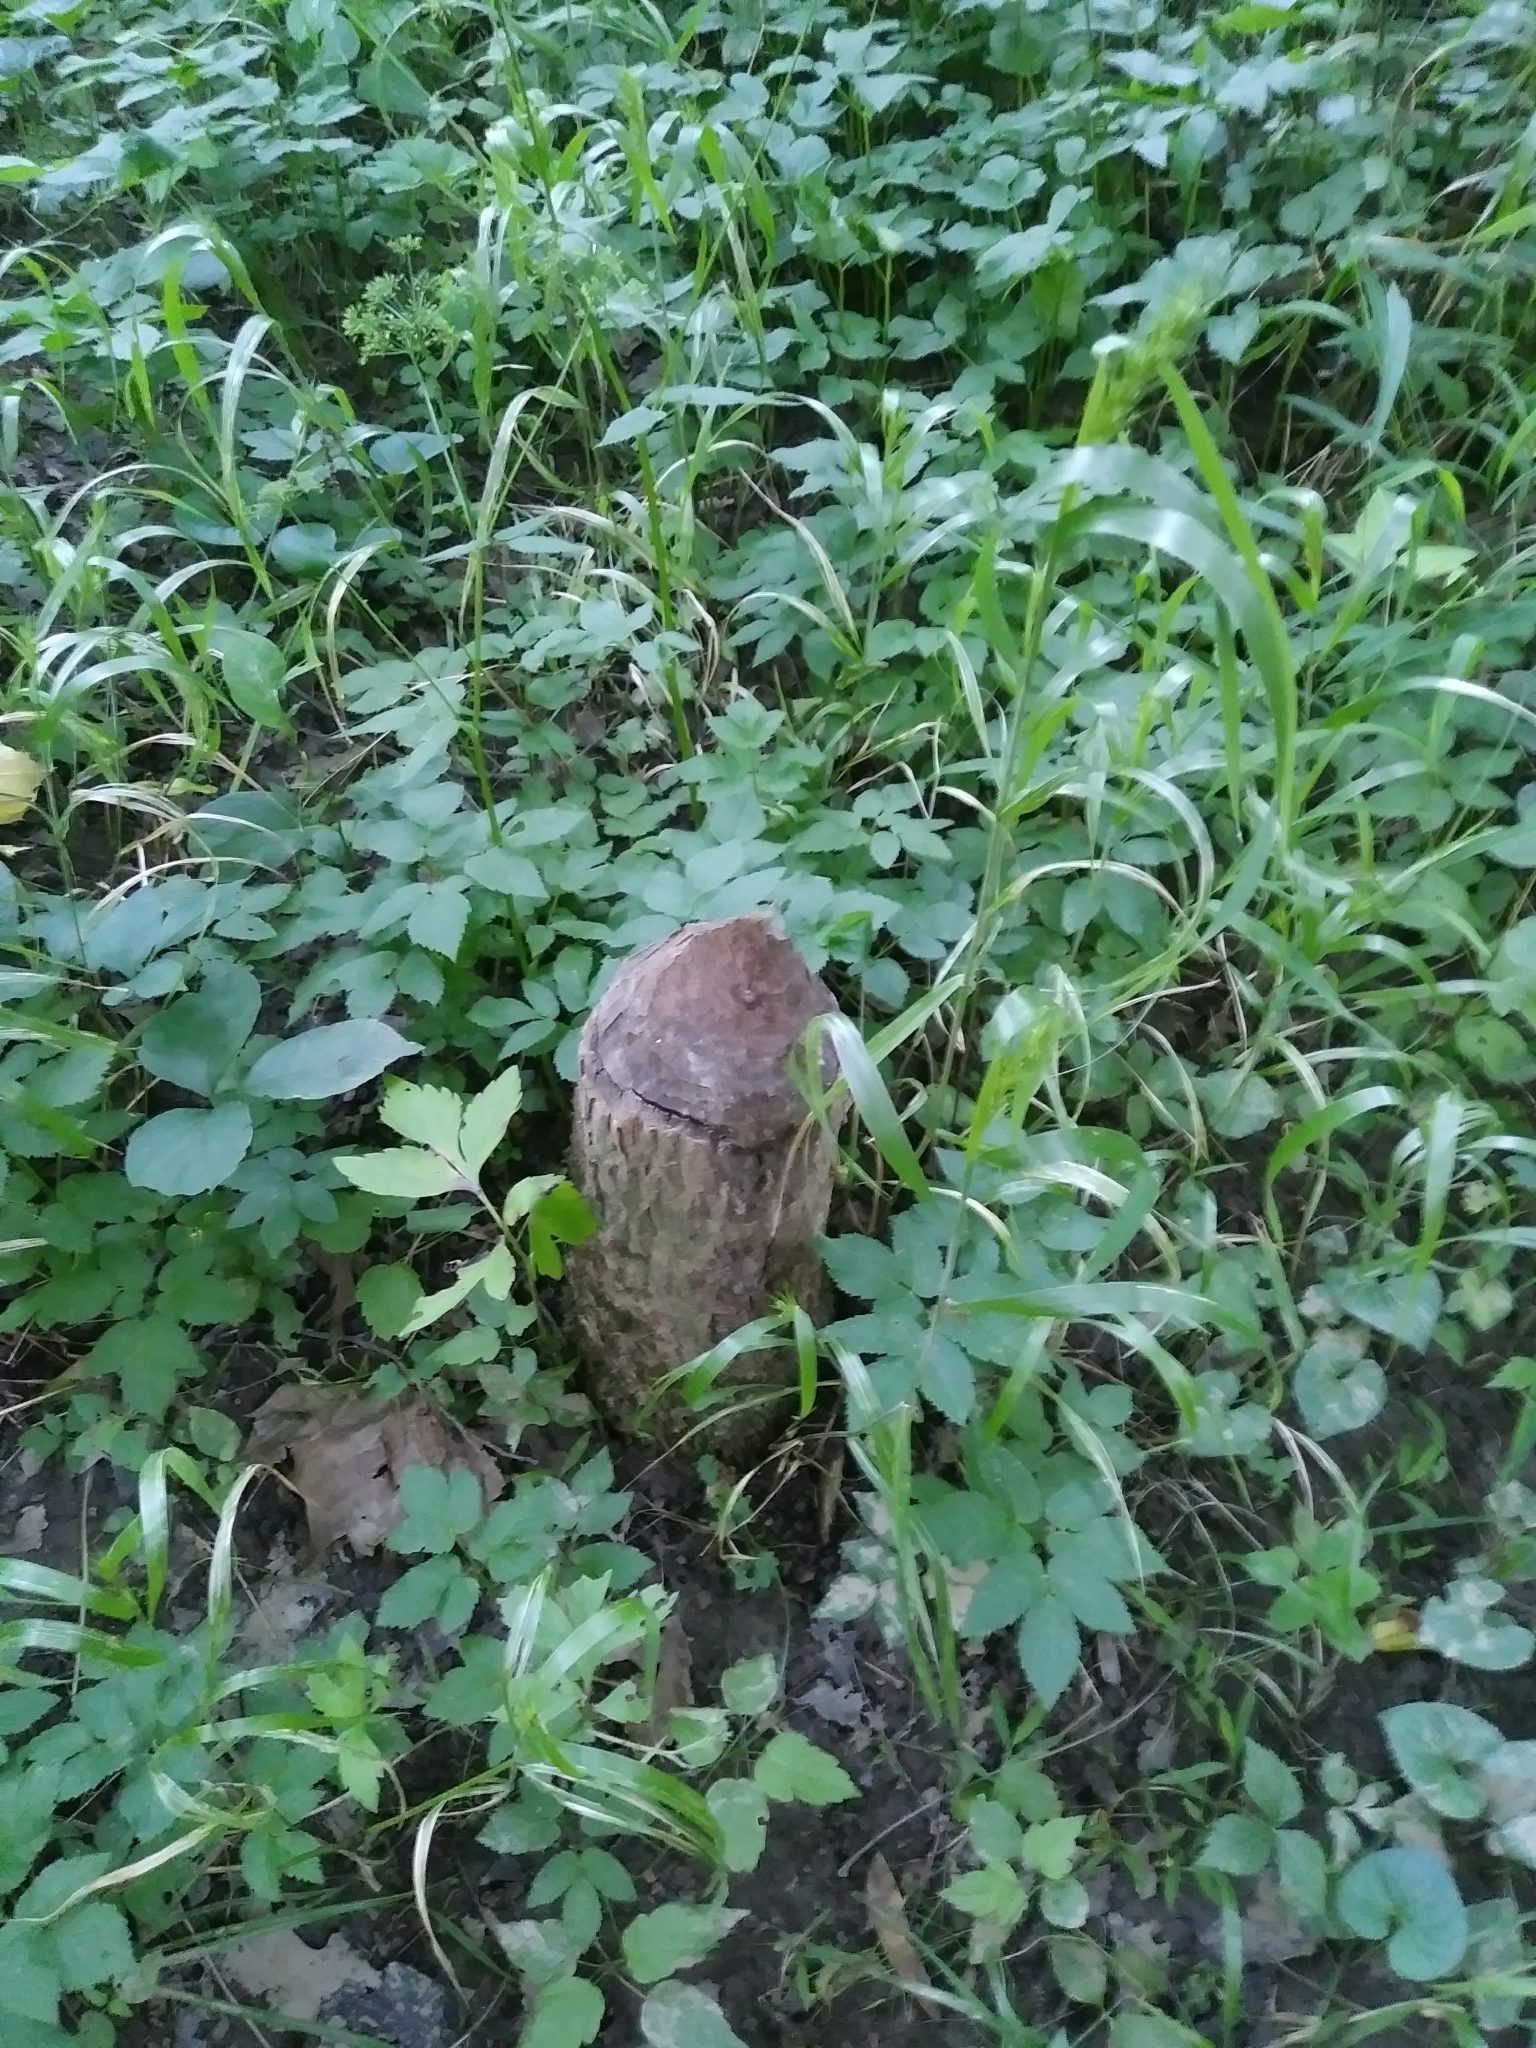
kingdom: Animalia
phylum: Chordata
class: Mammalia
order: Rodentia
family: Castoridae
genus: Castor
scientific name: Castor canadensis
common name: American beaver
